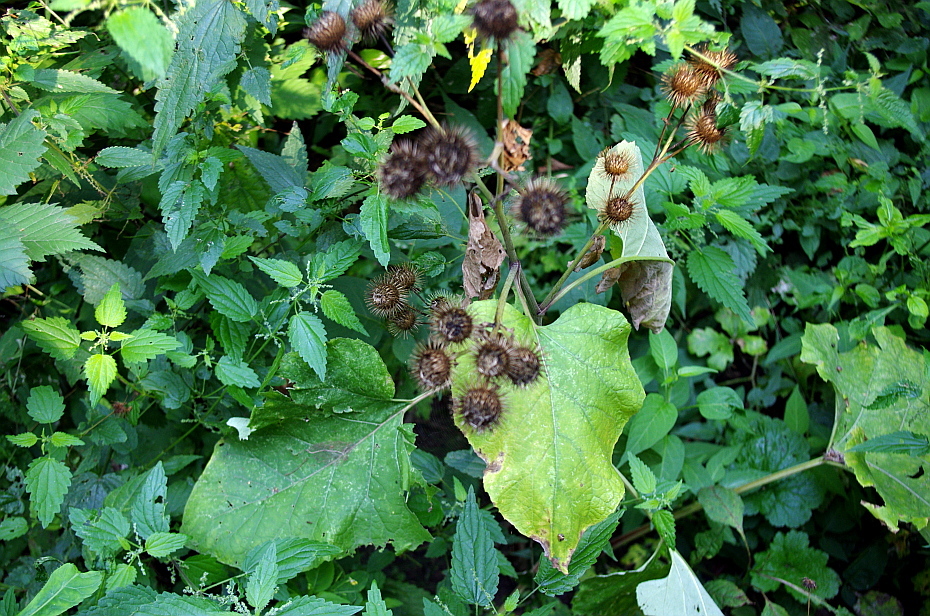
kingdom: Plantae
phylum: Tracheophyta
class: Magnoliopsida
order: Asterales
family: Asteraceae
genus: Arctium
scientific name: Arctium tomentosum
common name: Woolly burdock
